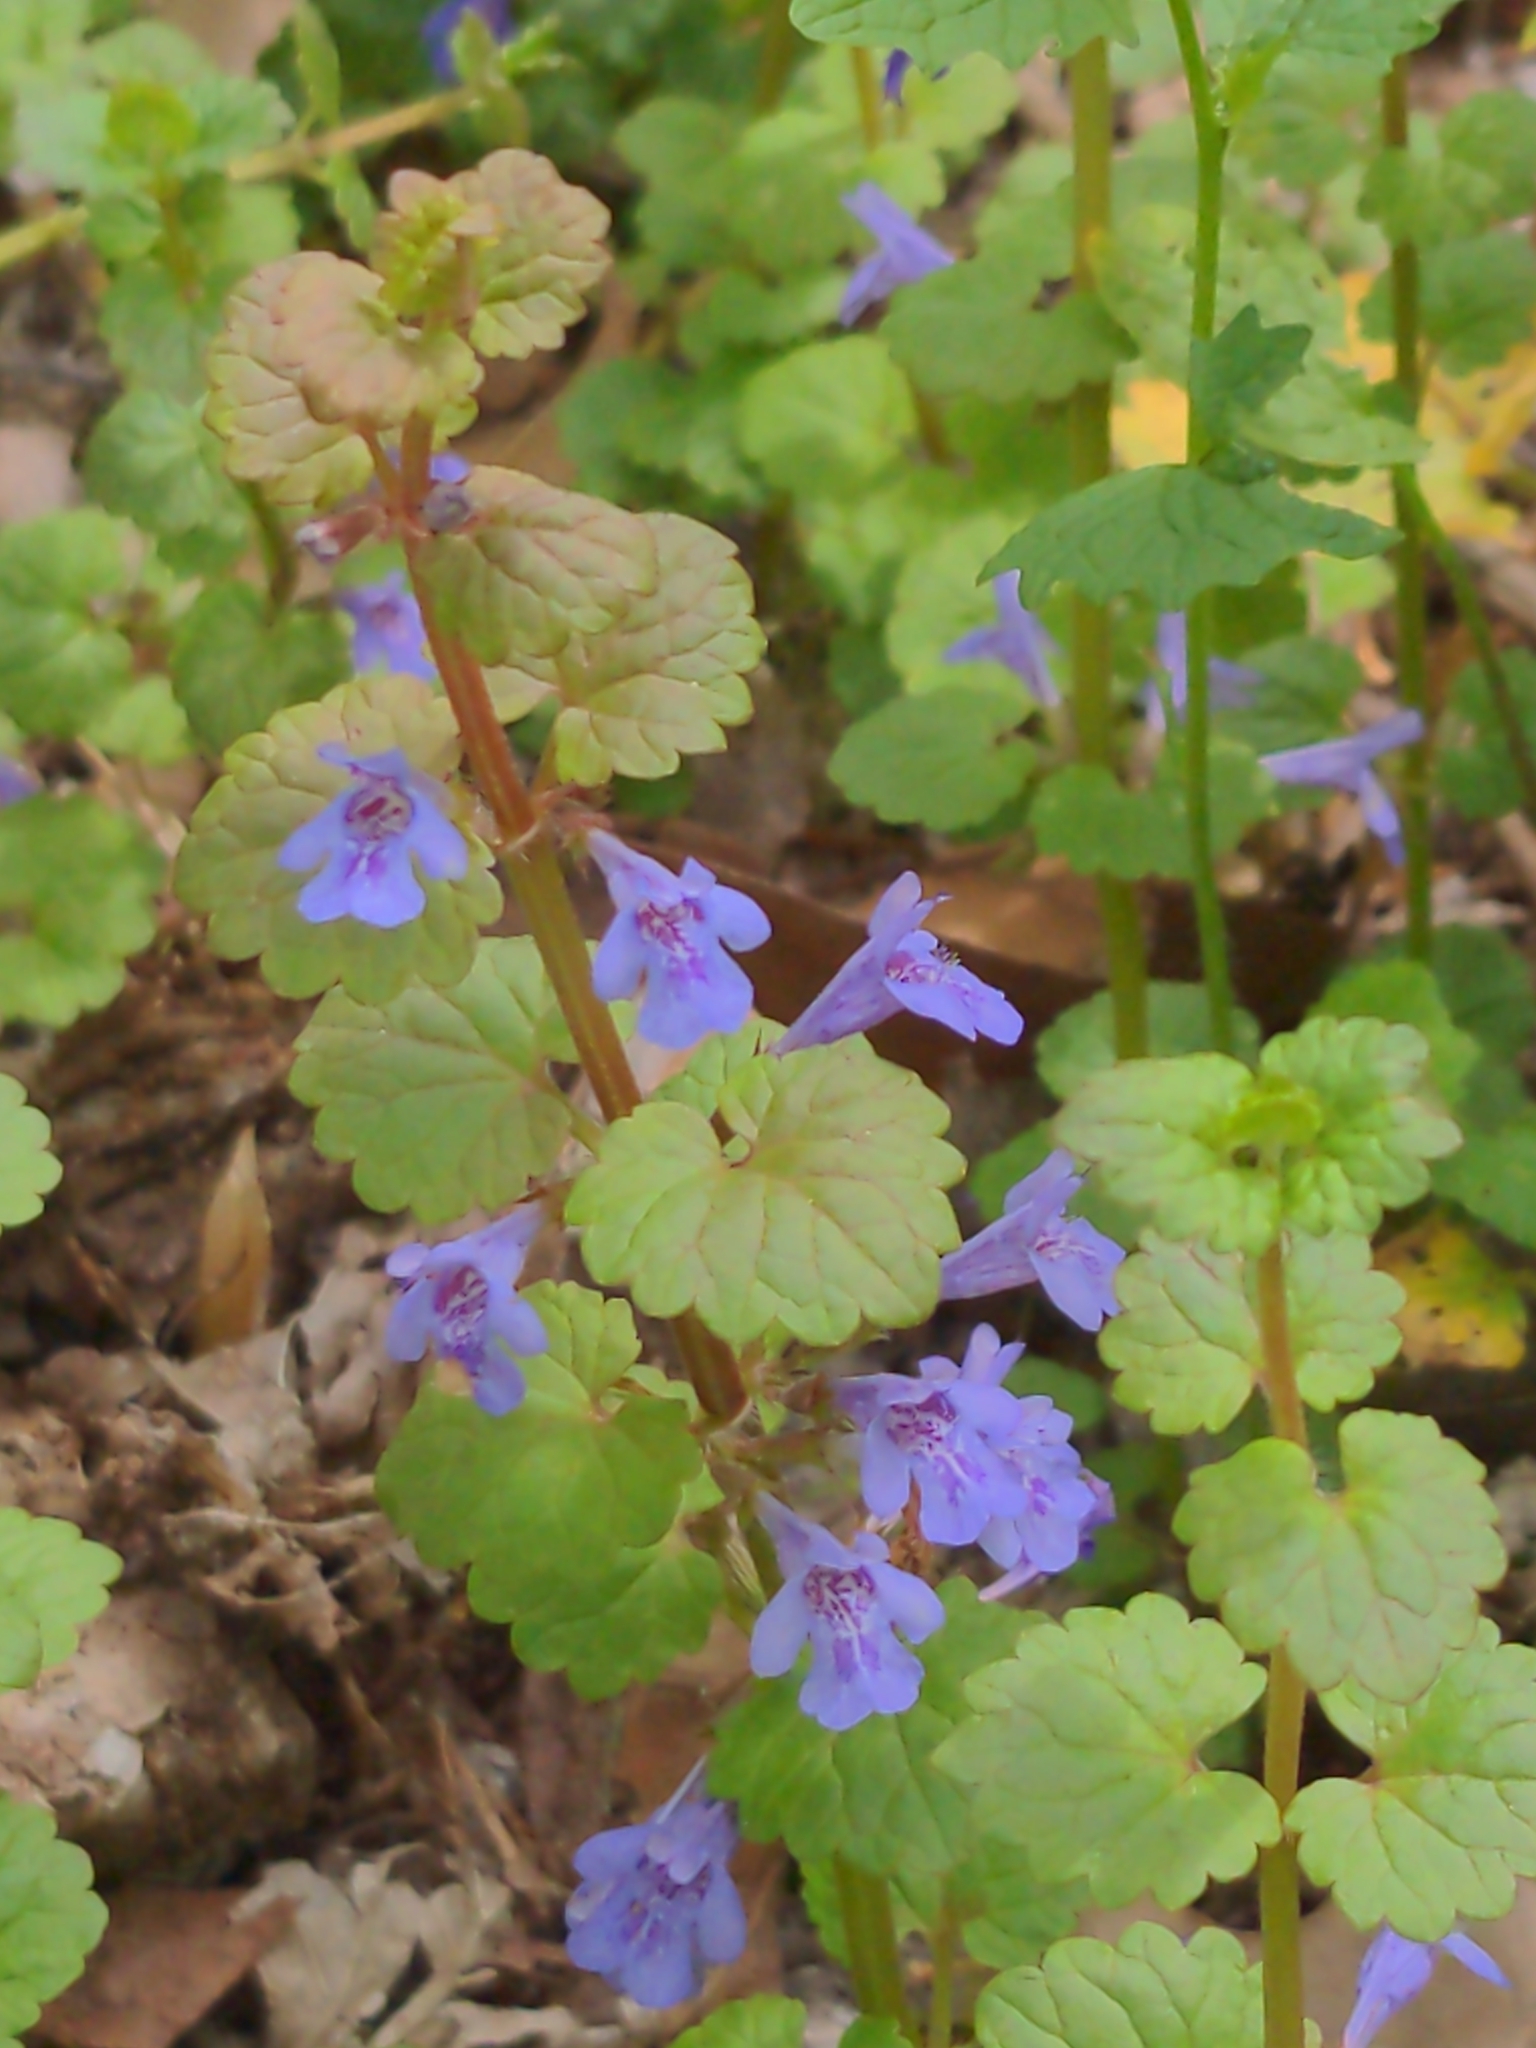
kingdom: Plantae
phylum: Tracheophyta
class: Magnoliopsida
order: Lamiales
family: Lamiaceae
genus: Glechoma
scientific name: Glechoma hederacea
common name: Ground ivy
